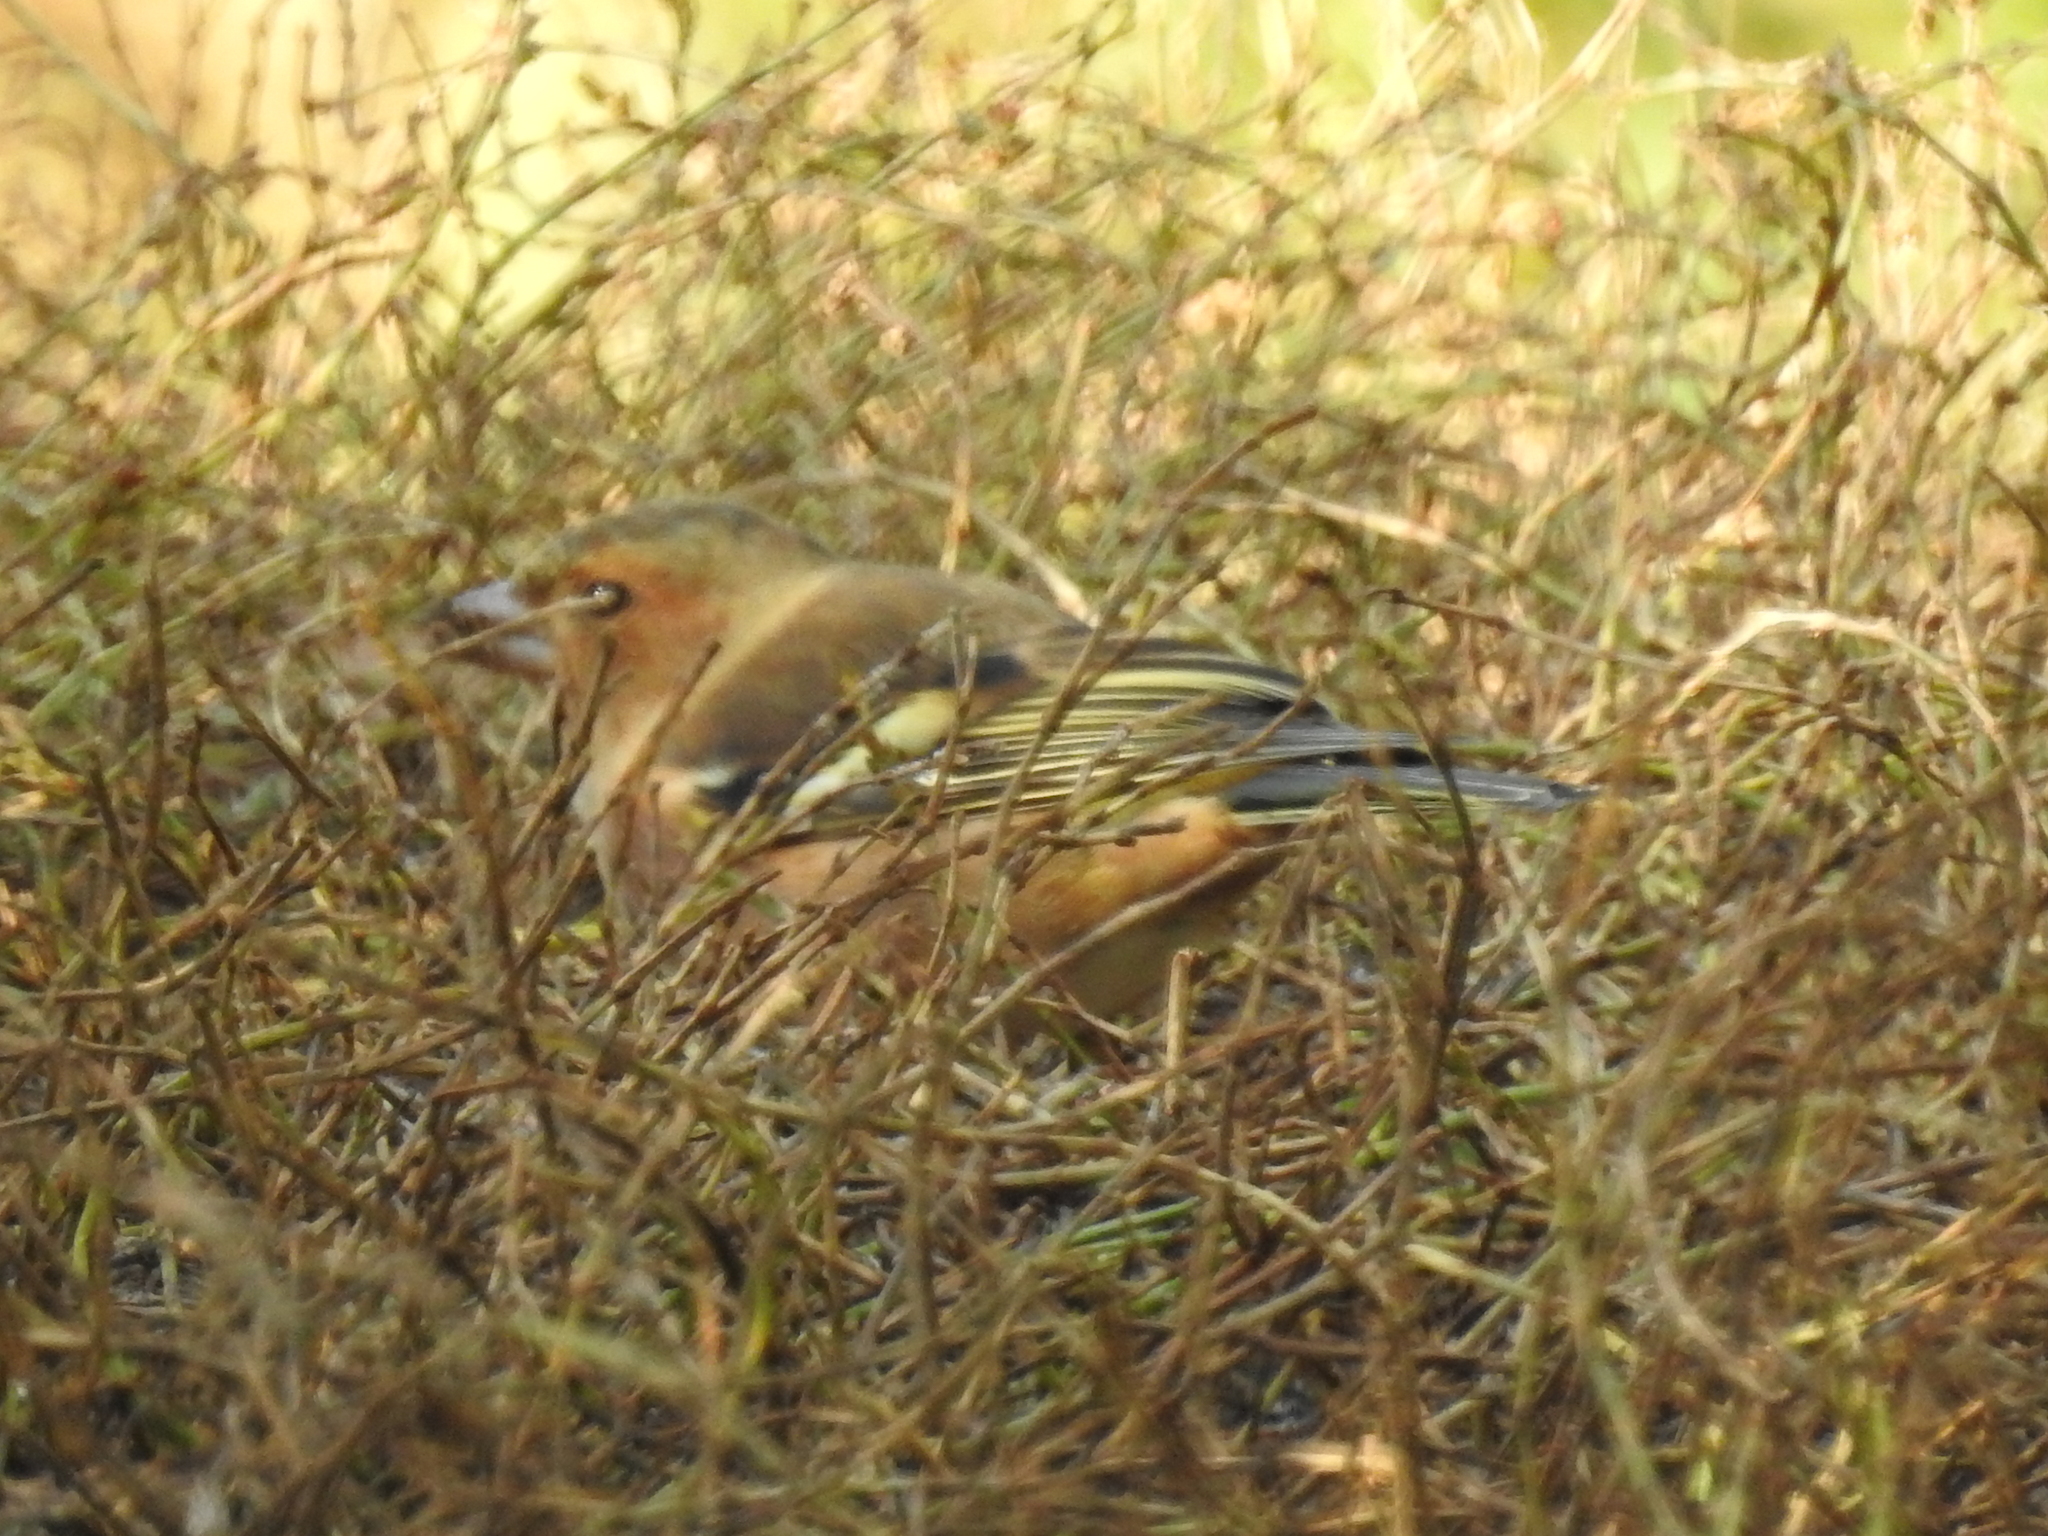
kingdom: Animalia
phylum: Chordata
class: Aves
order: Passeriformes
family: Fringillidae
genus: Fringilla
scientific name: Fringilla coelebs
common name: Common chaffinch
